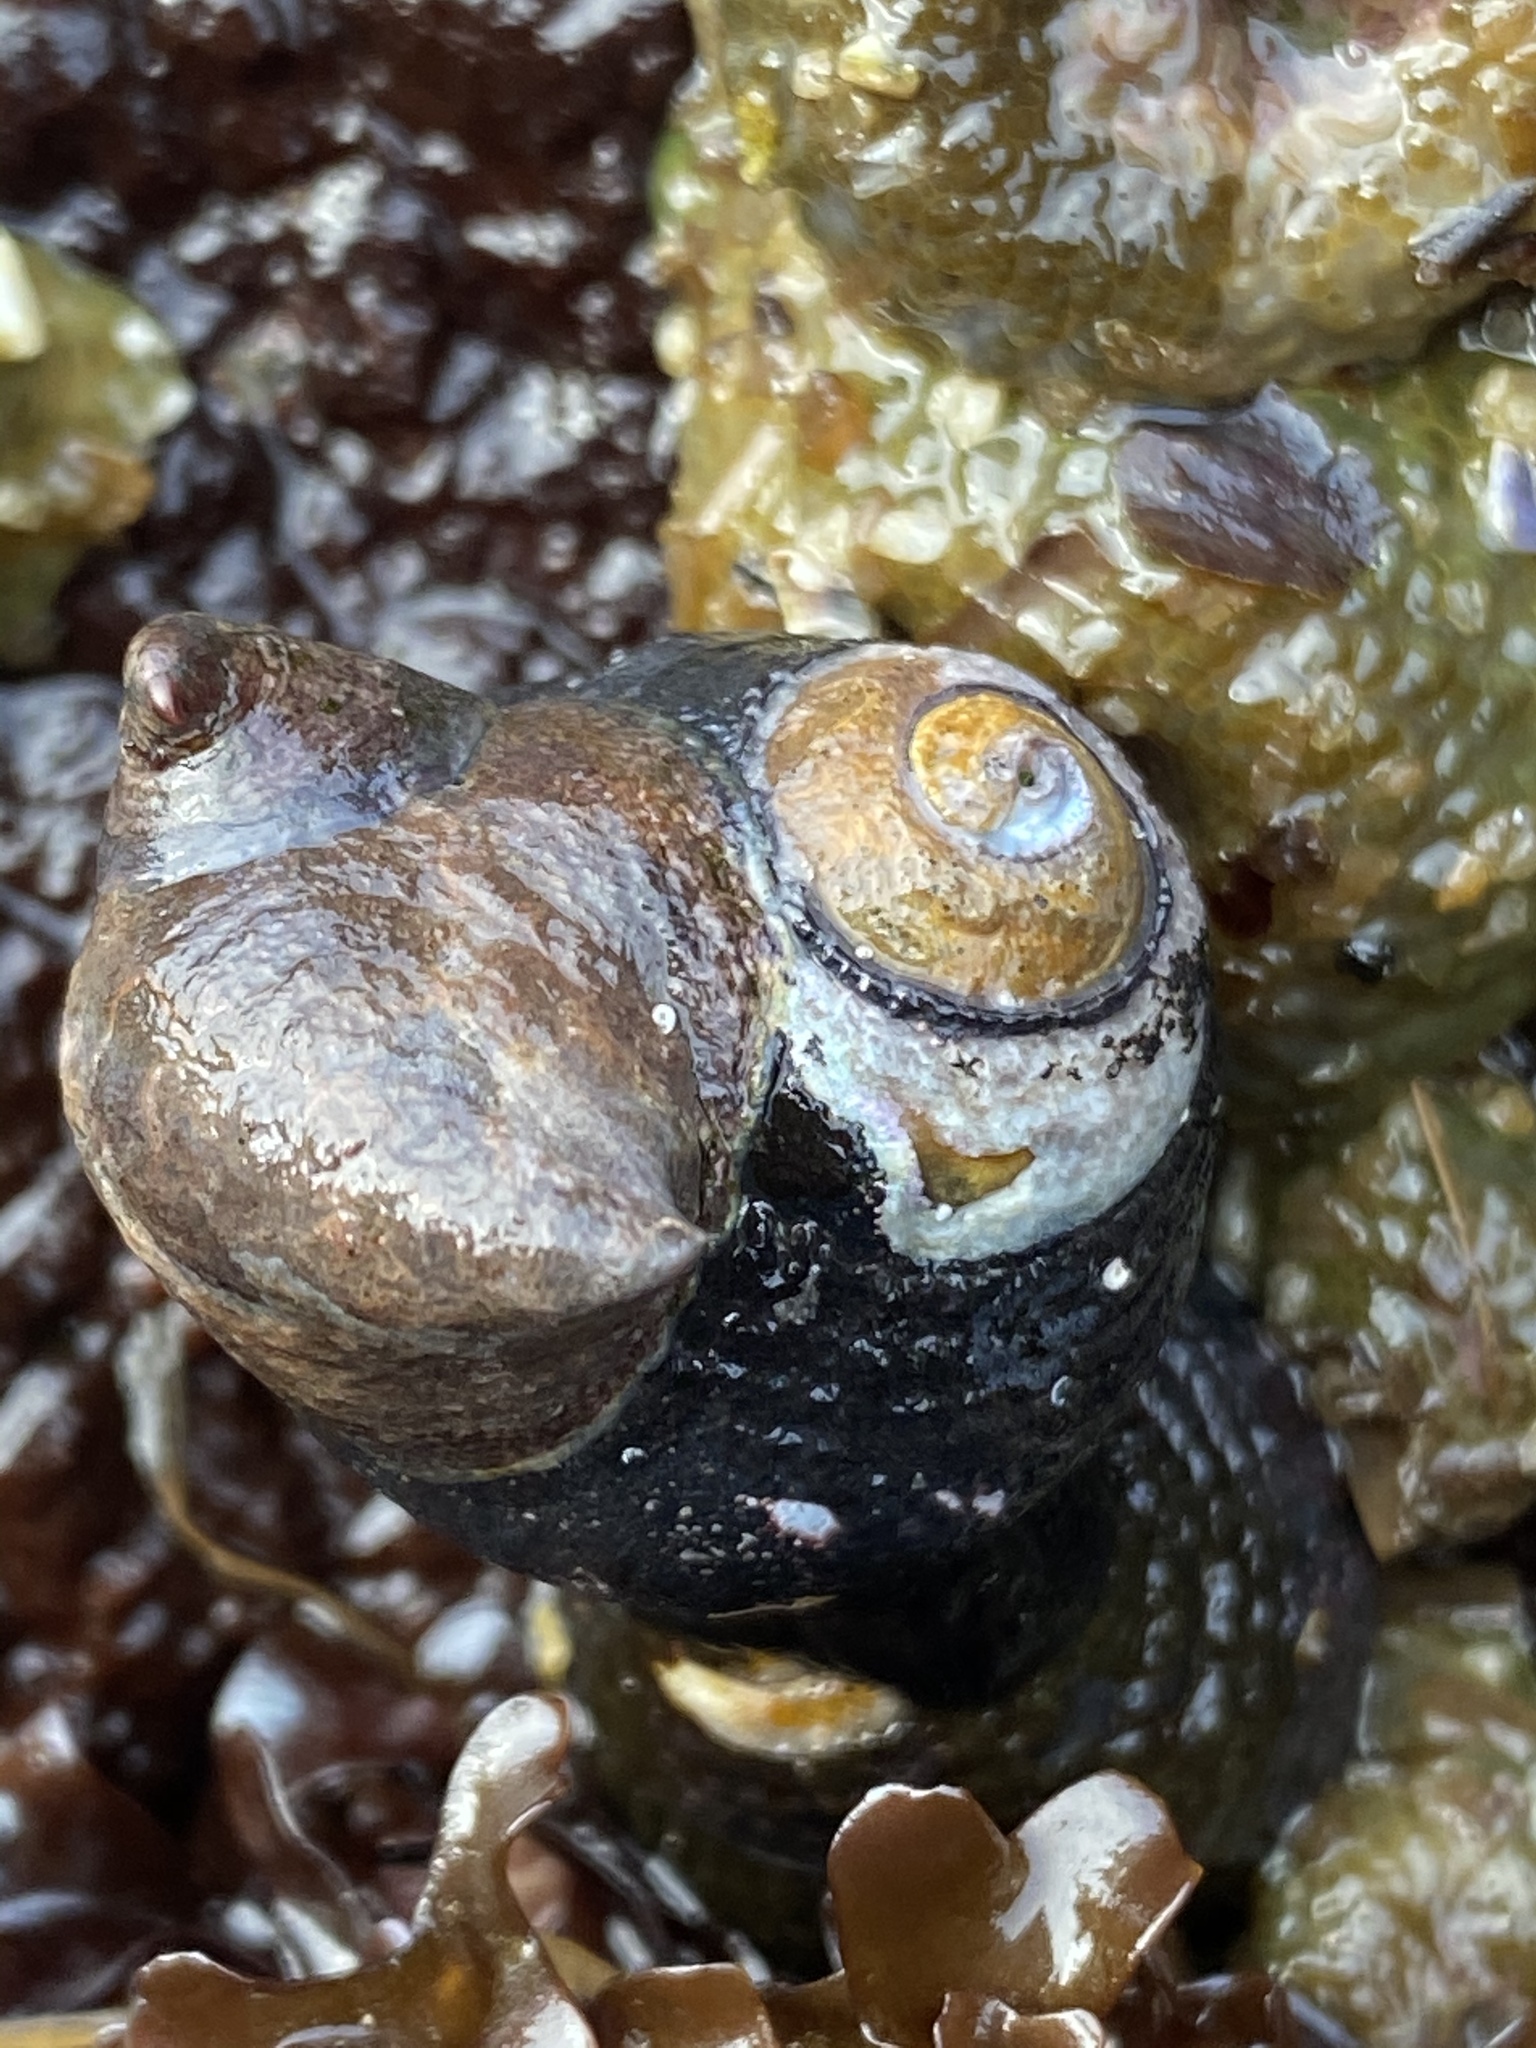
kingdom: Animalia
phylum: Mollusca
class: Gastropoda
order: Trochida
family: Tegulidae
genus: Tegula
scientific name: Tegula funebralis
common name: Black tegula
